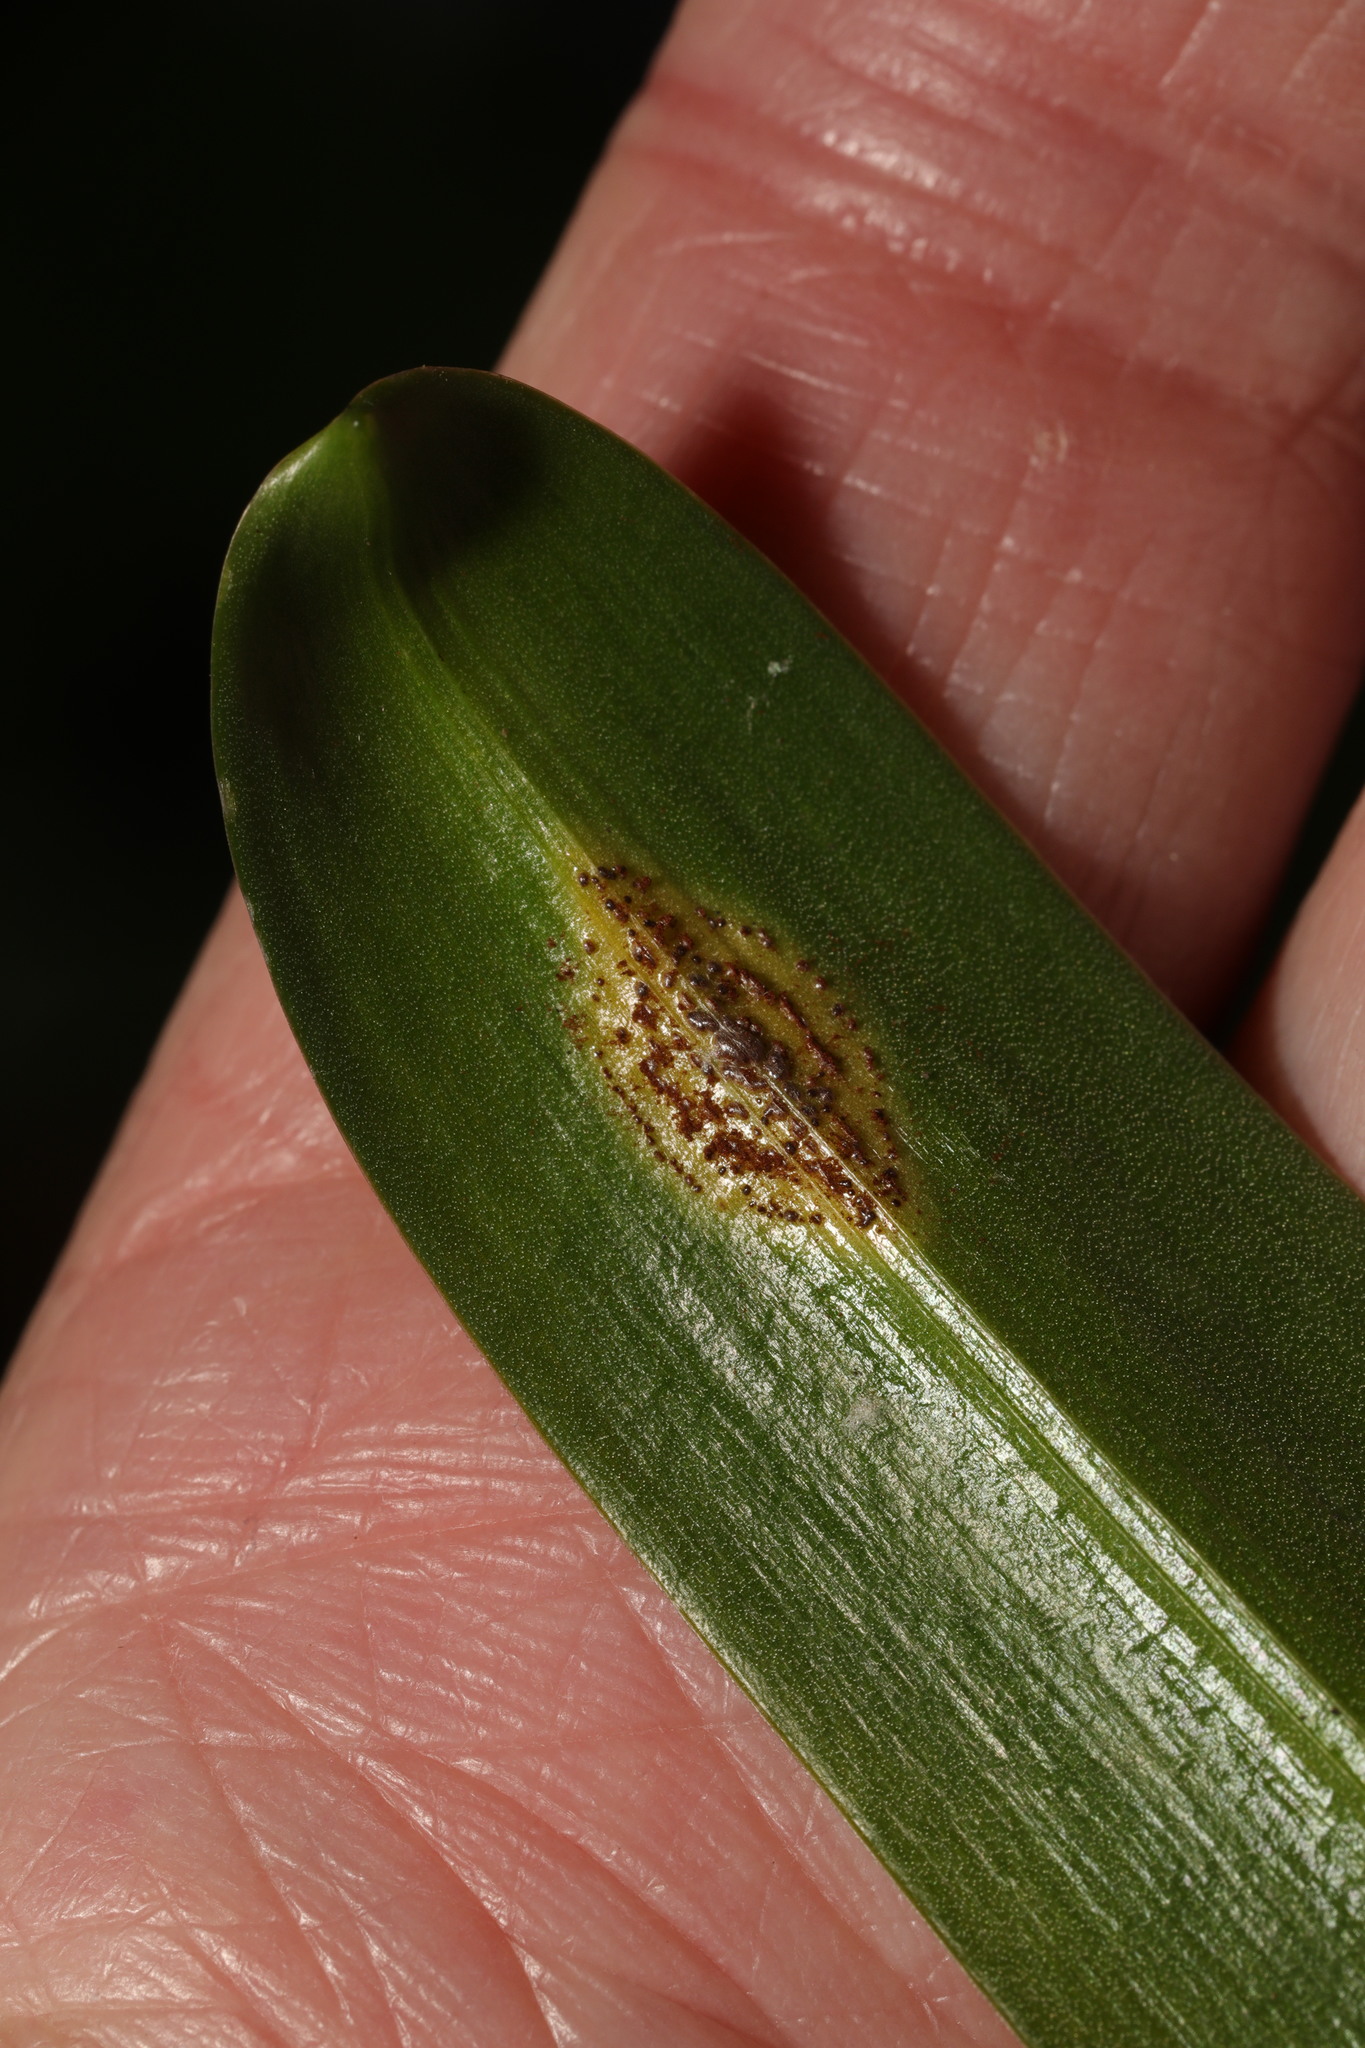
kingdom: Fungi
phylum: Basidiomycota
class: Pucciniomycetes
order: Pucciniales
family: Pucciniaceae
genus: Uromyces
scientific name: Uromyces hyacinthi
